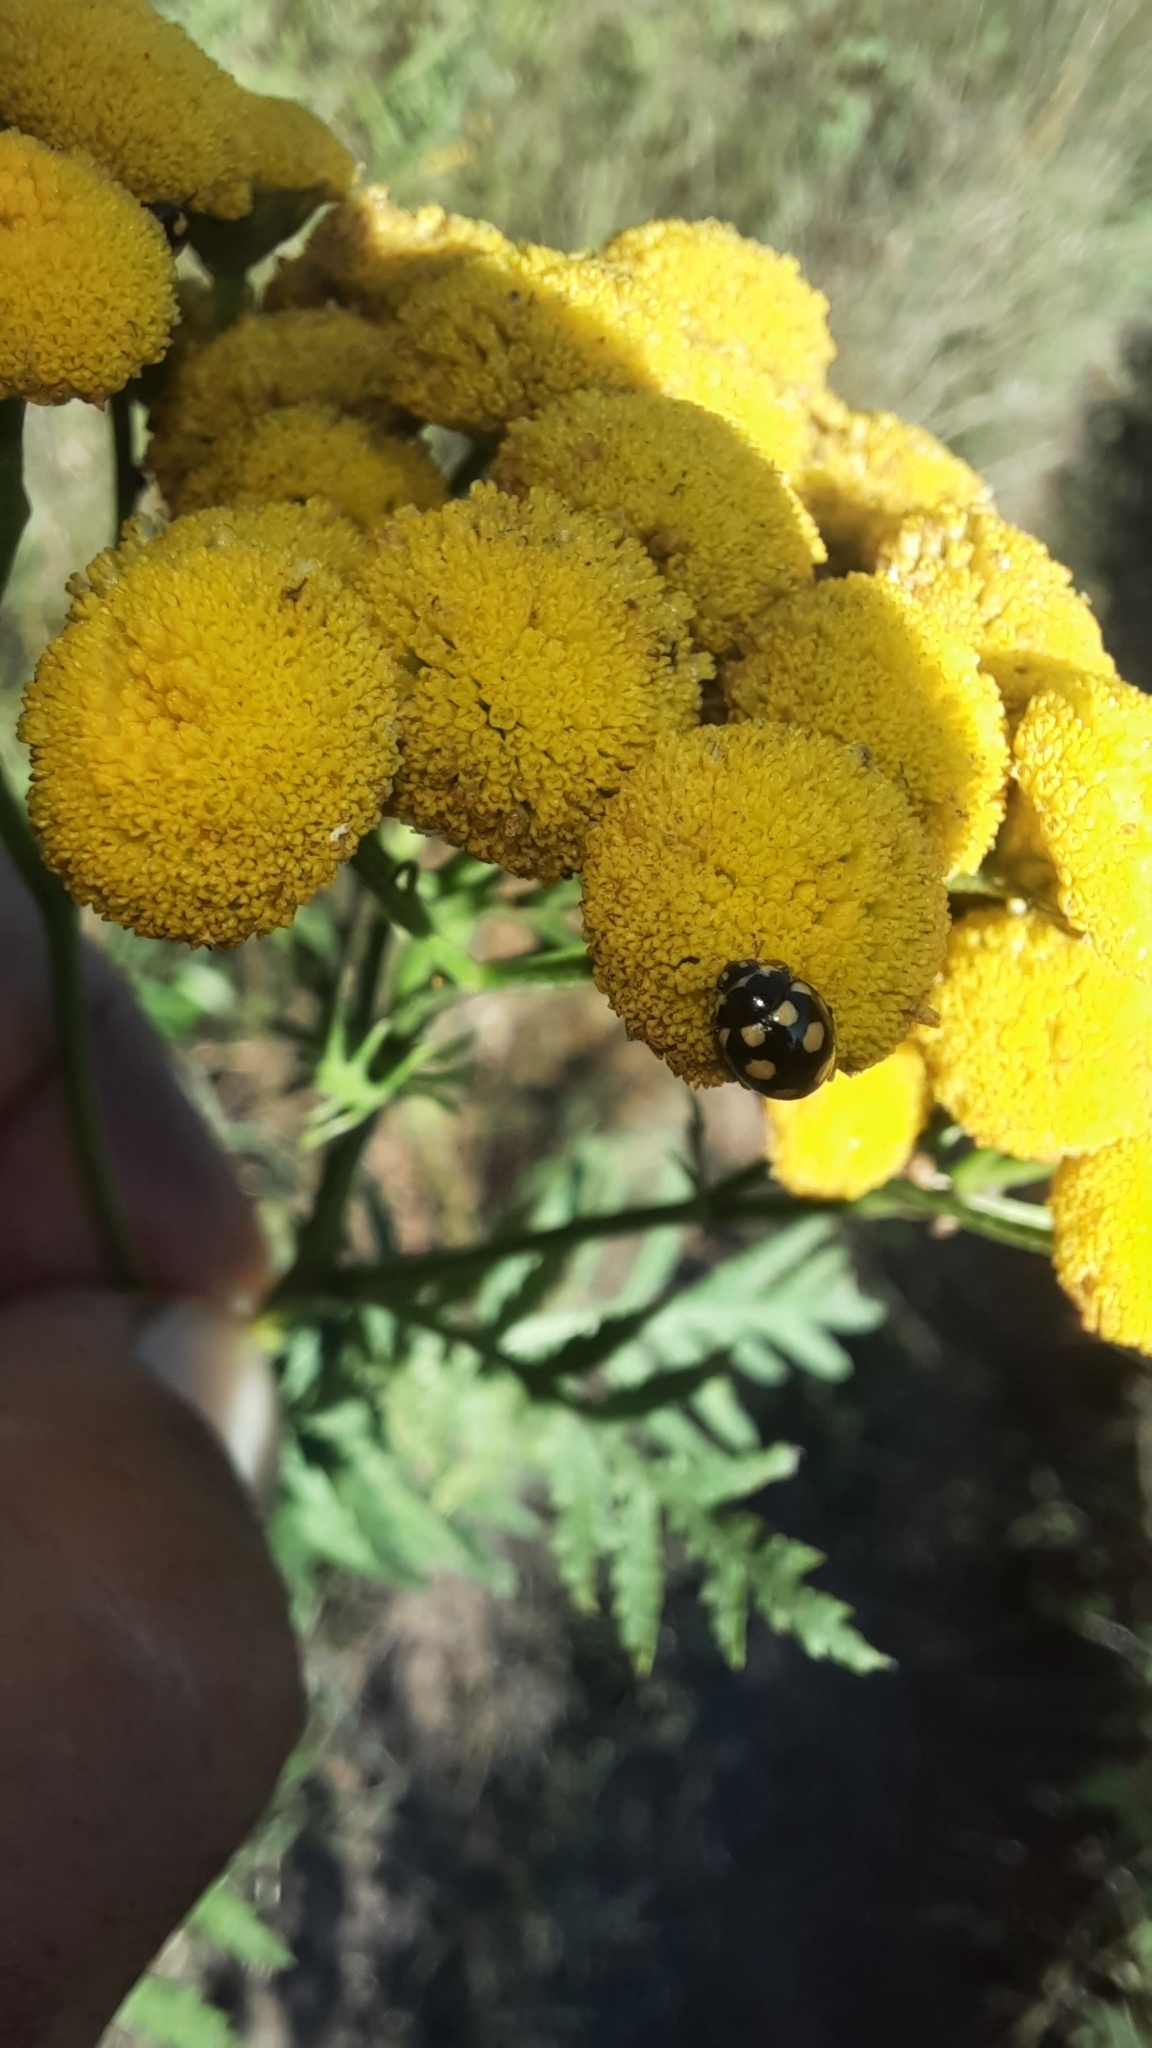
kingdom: Animalia
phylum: Arthropoda
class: Insecta
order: Coleoptera
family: Coccinellidae
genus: Coccinula
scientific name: Coccinula quatuordecimpustulata
